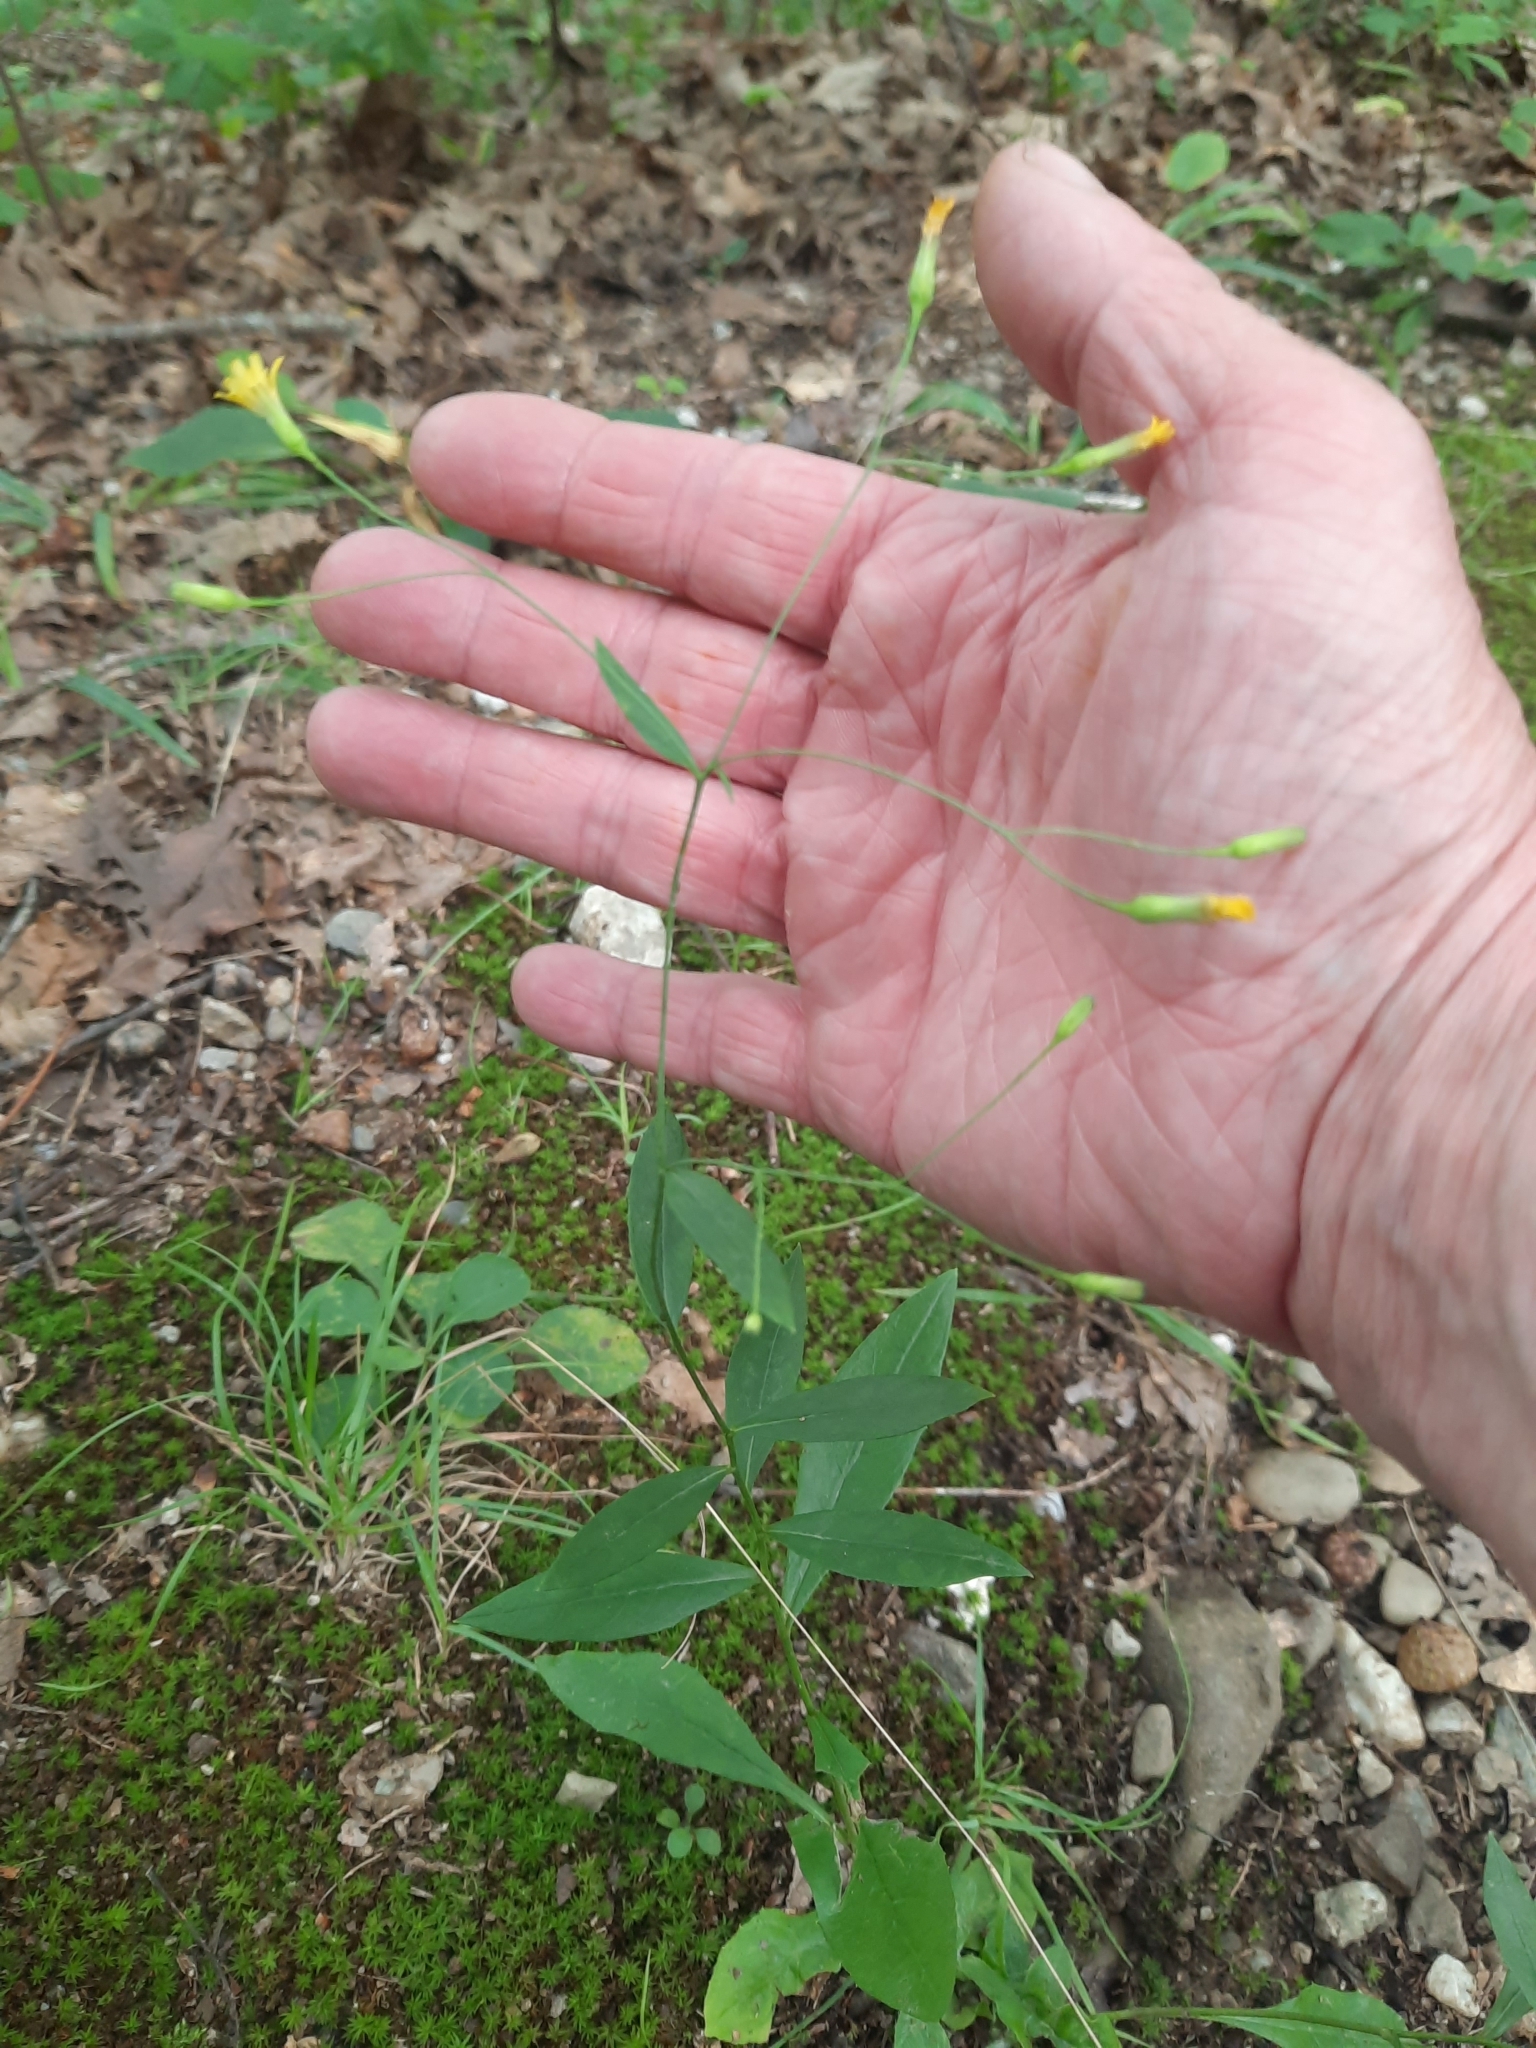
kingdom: Plantae
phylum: Tracheophyta
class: Magnoliopsida
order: Asterales
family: Asteraceae
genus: Hieracium
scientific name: Hieracium paniculatum
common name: Allegheny hawkweed
